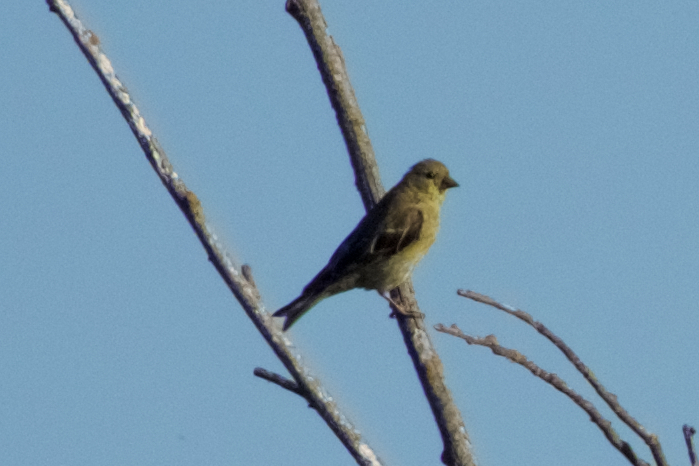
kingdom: Animalia
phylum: Chordata
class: Aves
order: Passeriformes
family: Fringillidae
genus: Spinus
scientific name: Spinus psaltria
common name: Lesser goldfinch
